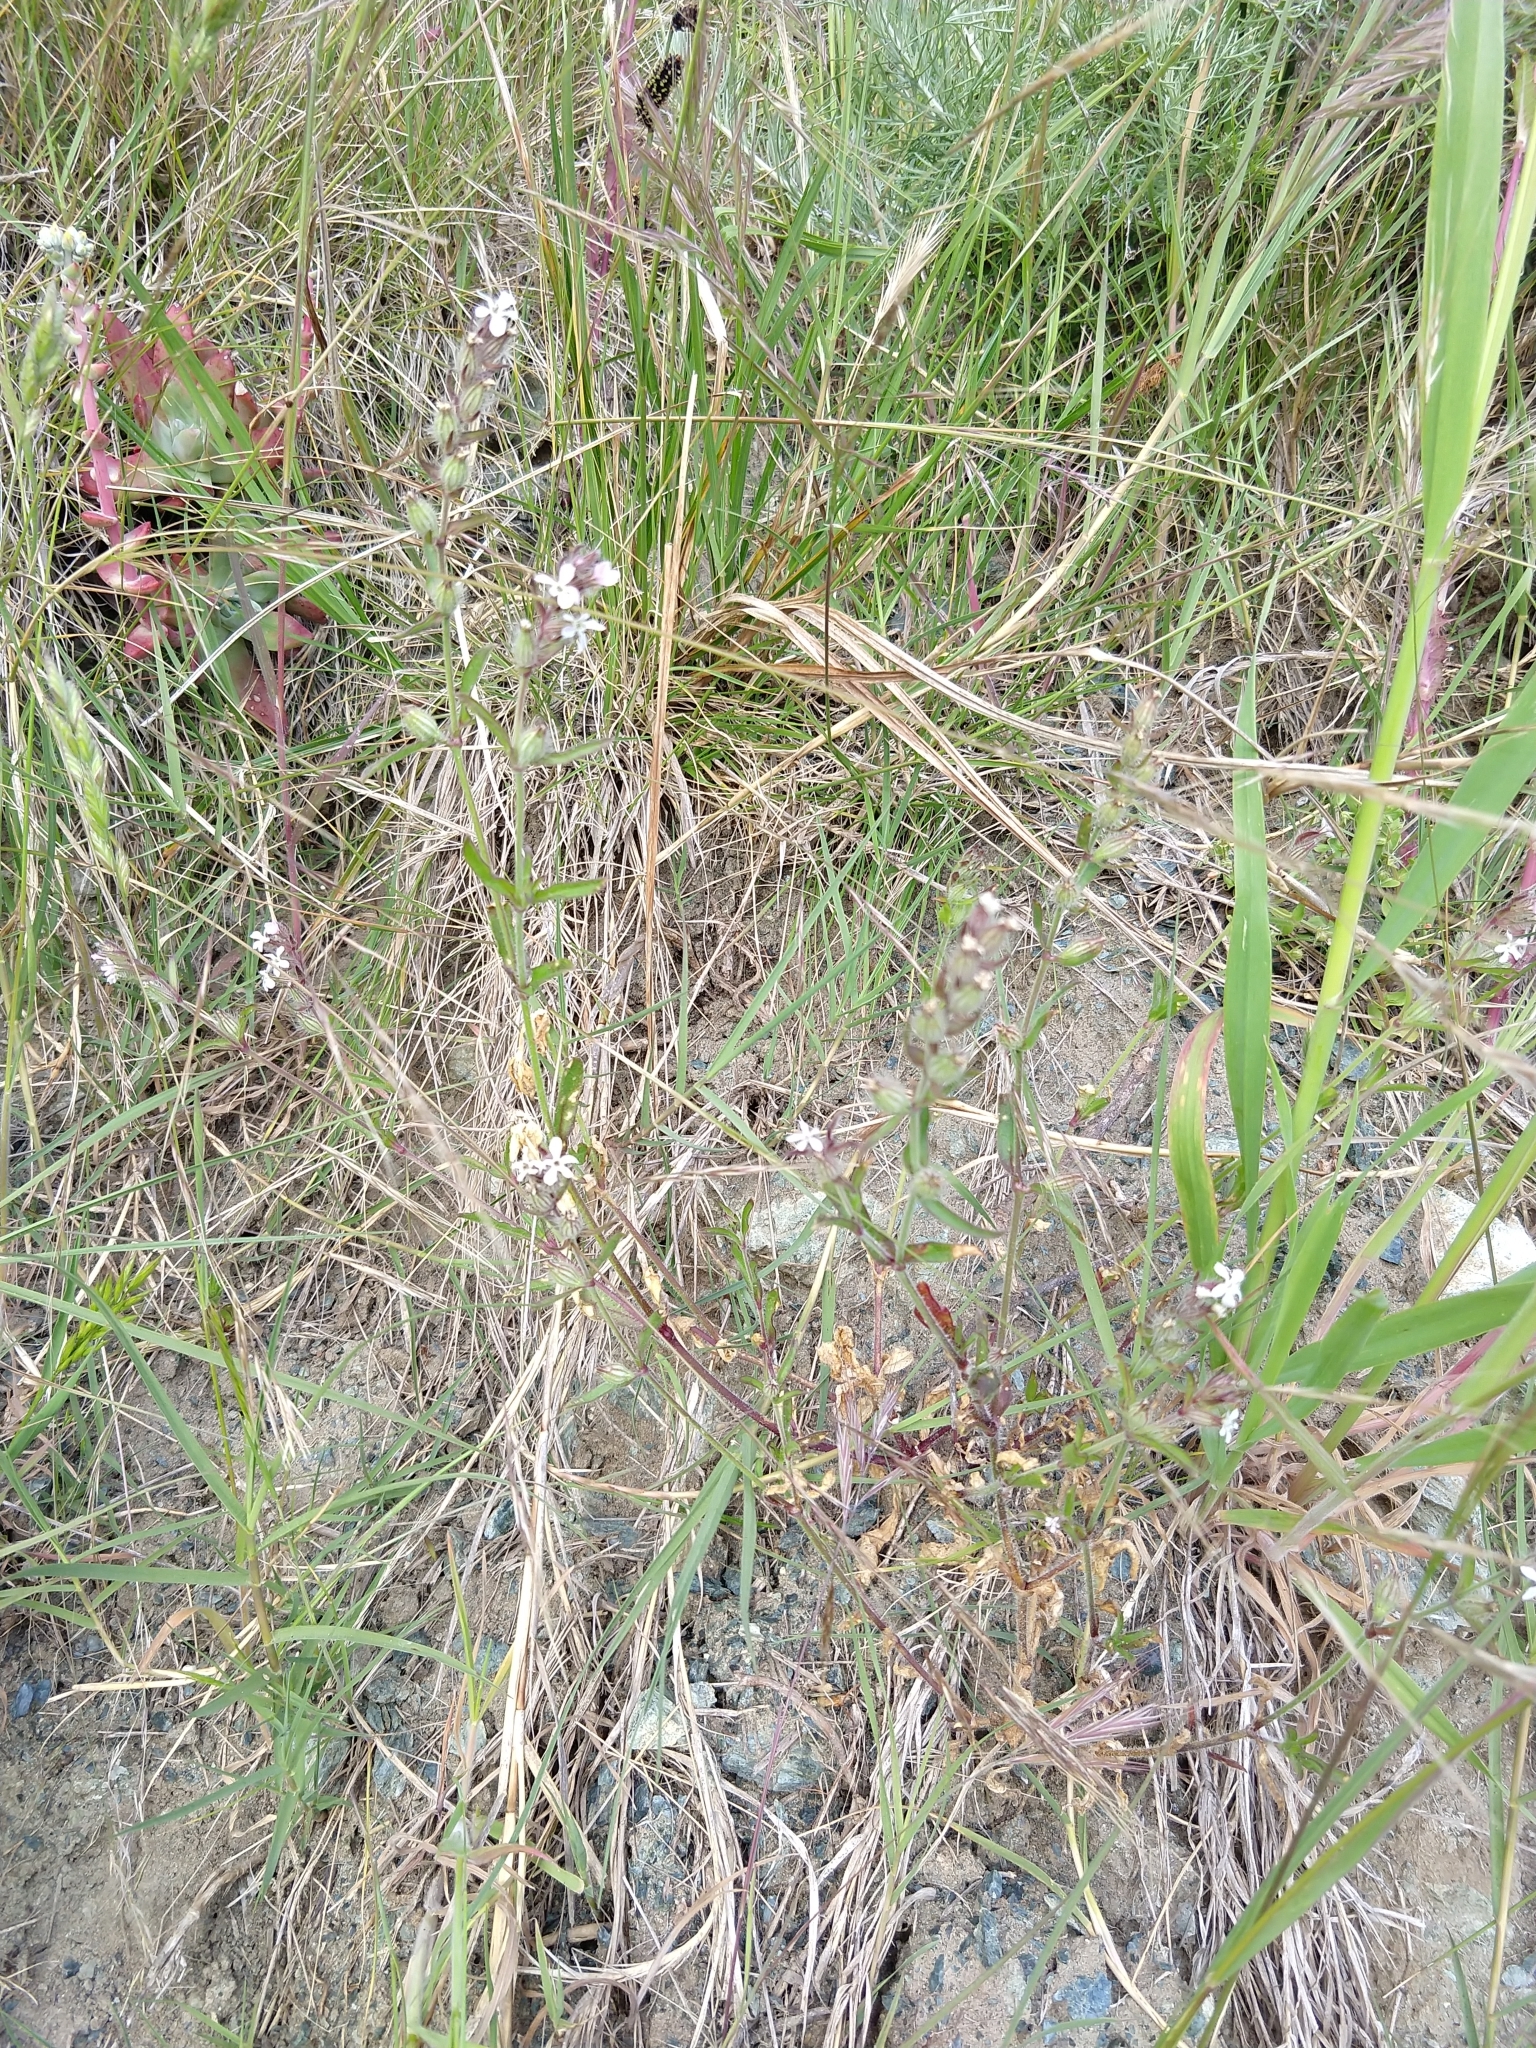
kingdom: Plantae
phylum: Tracheophyta
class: Magnoliopsida
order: Caryophyllales
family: Caryophyllaceae
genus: Silene
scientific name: Silene gallica
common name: Small-flowered catchfly
